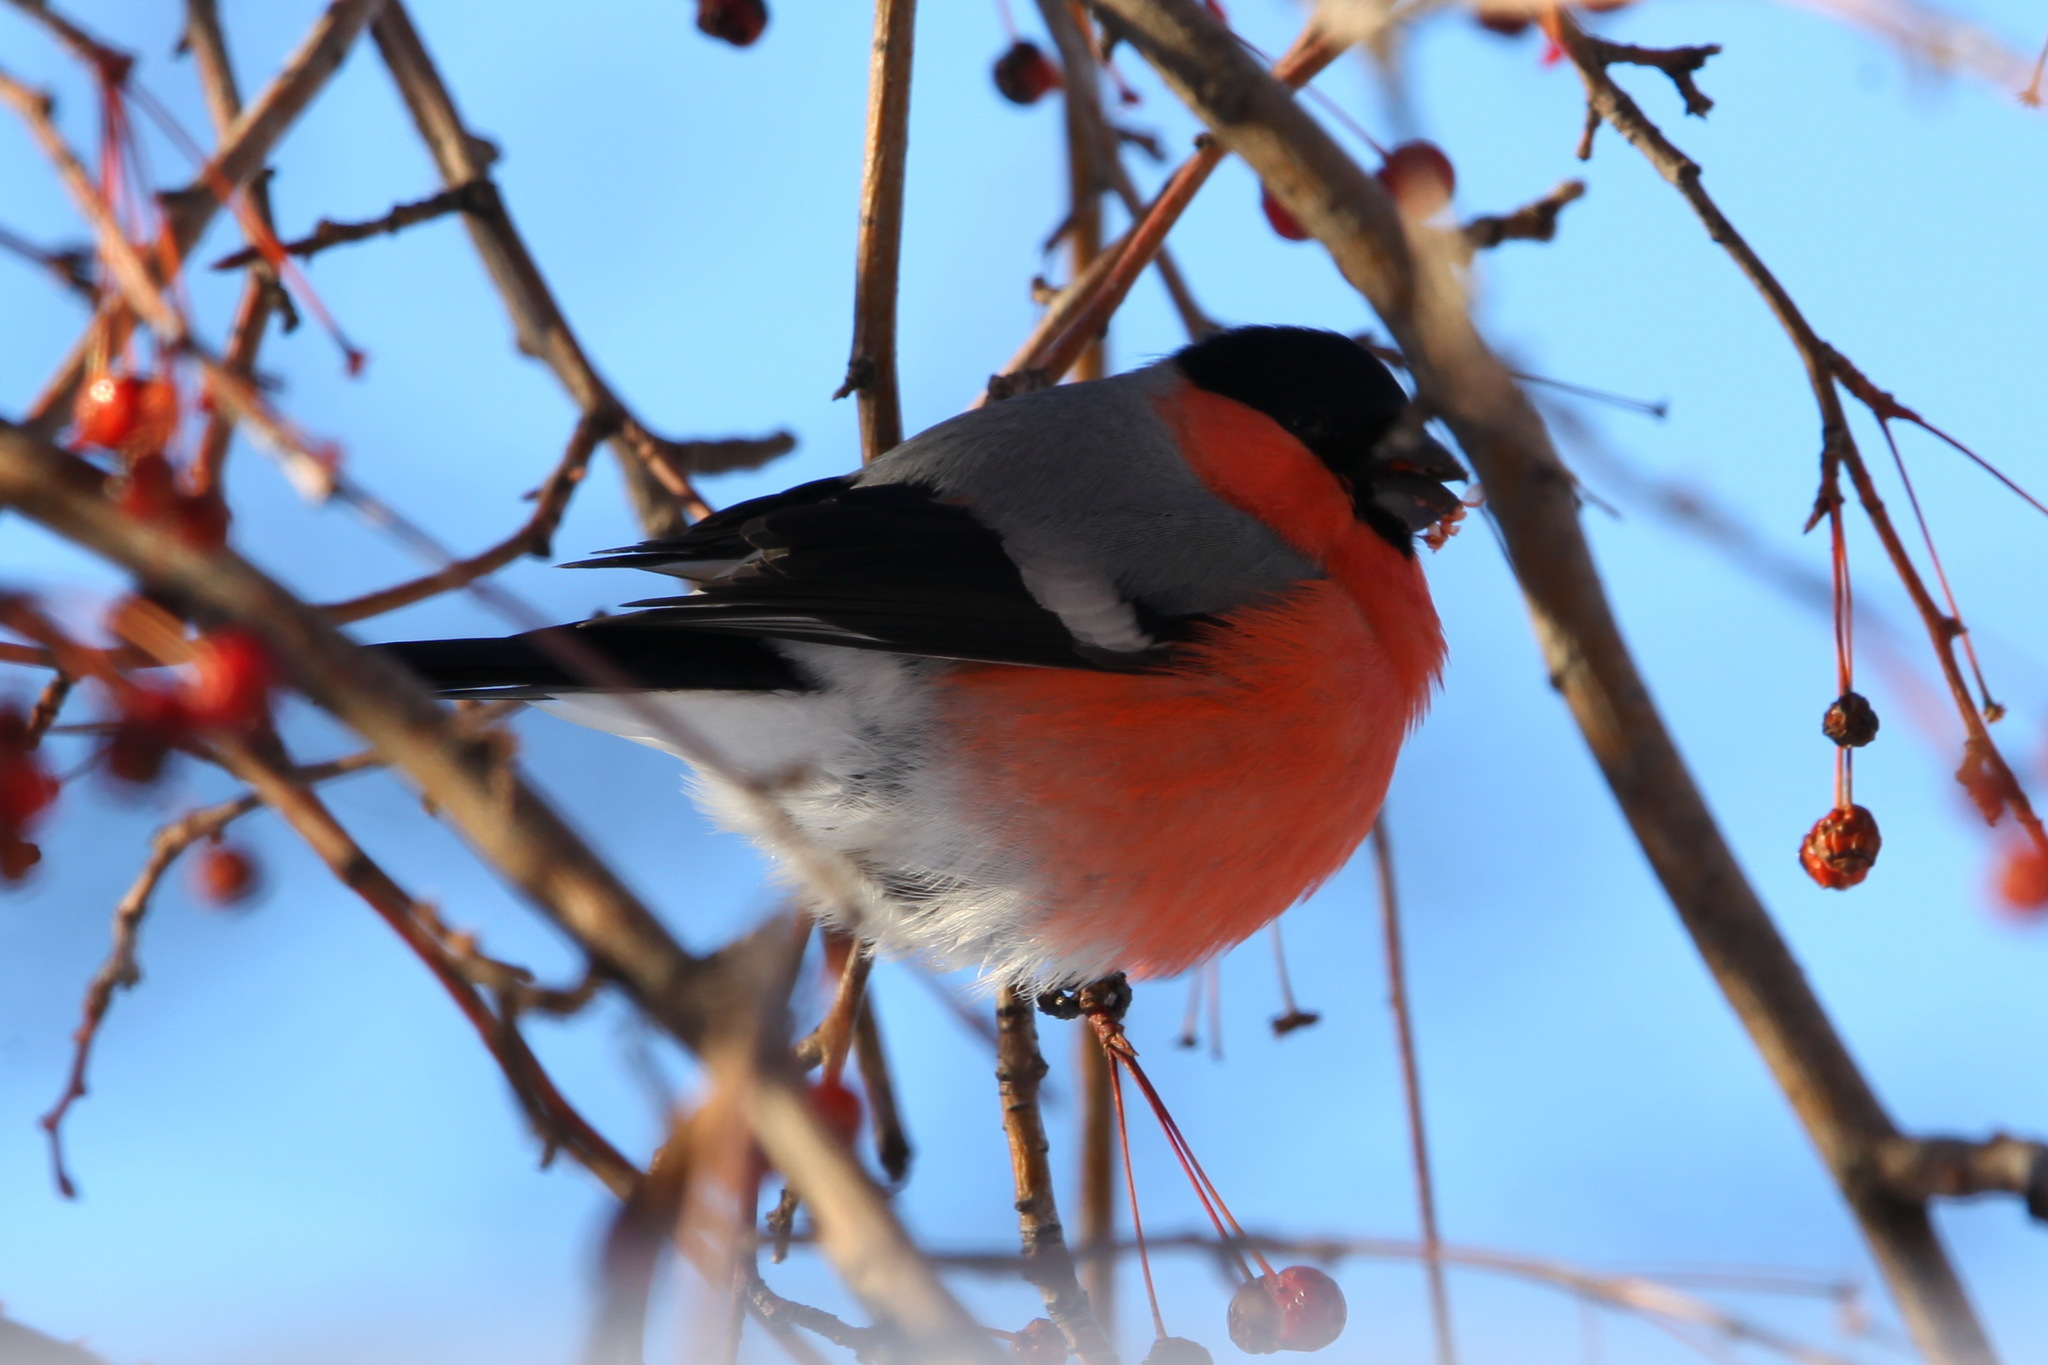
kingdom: Animalia
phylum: Chordata
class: Aves
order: Passeriformes
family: Fringillidae
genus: Pyrrhula
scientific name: Pyrrhula pyrrhula
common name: Eurasian bullfinch
